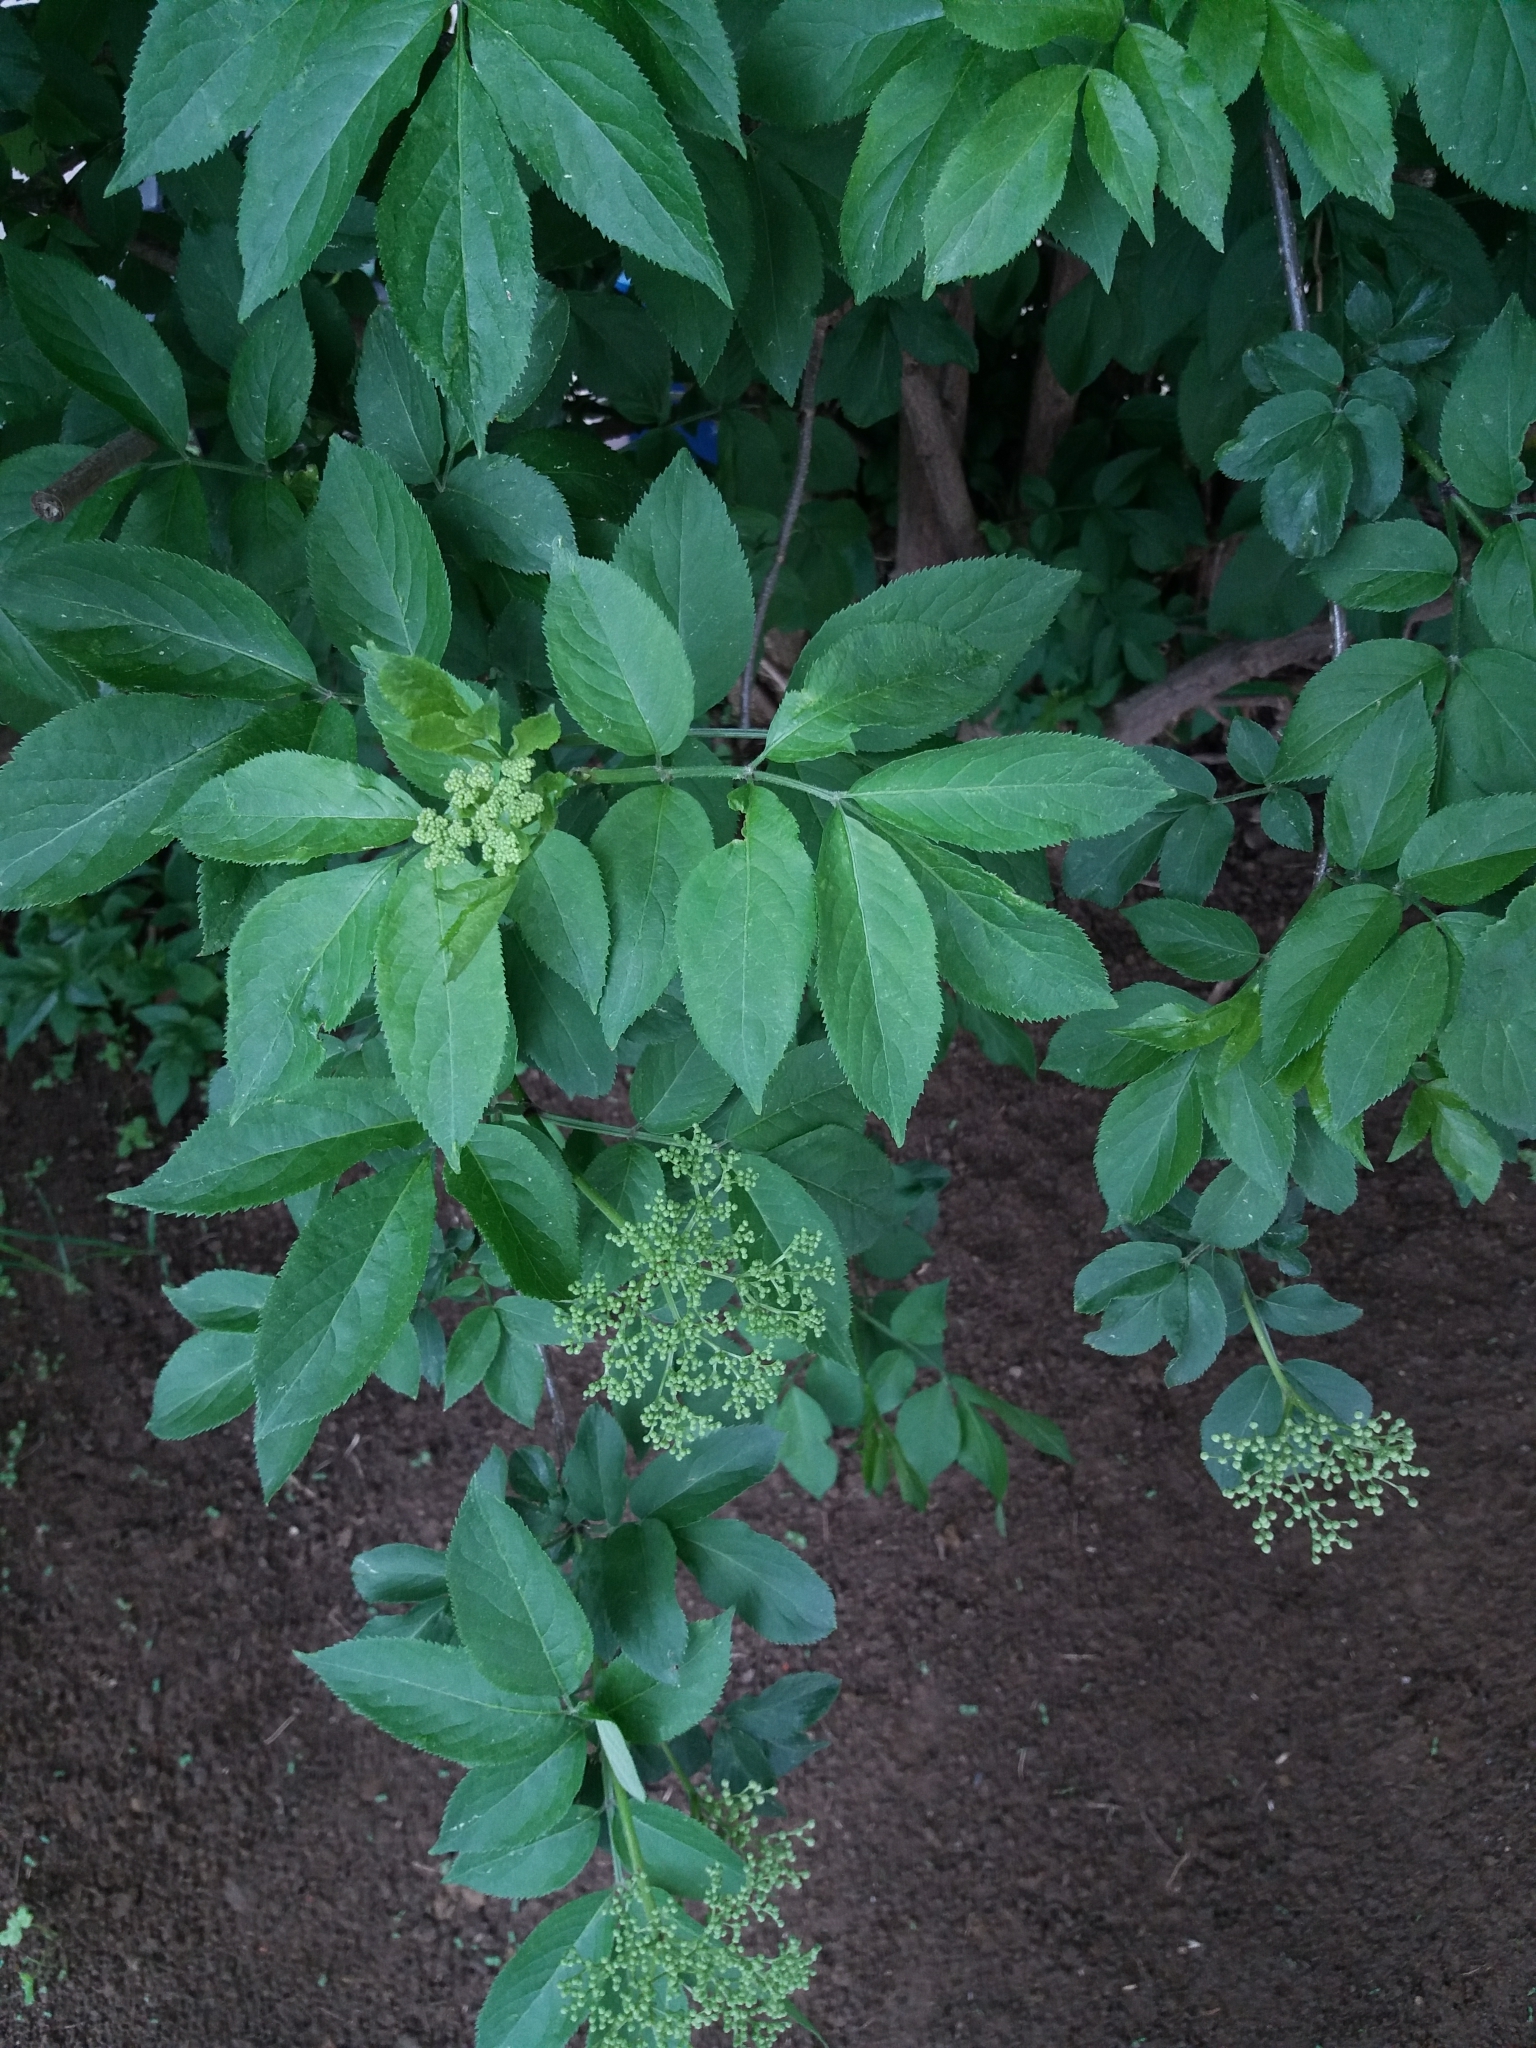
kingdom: Plantae
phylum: Tracheophyta
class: Magnoliopsida
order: Dipsacales
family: Viburnaceae
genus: Sambucus
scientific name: Sambucus nigra
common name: Elder
